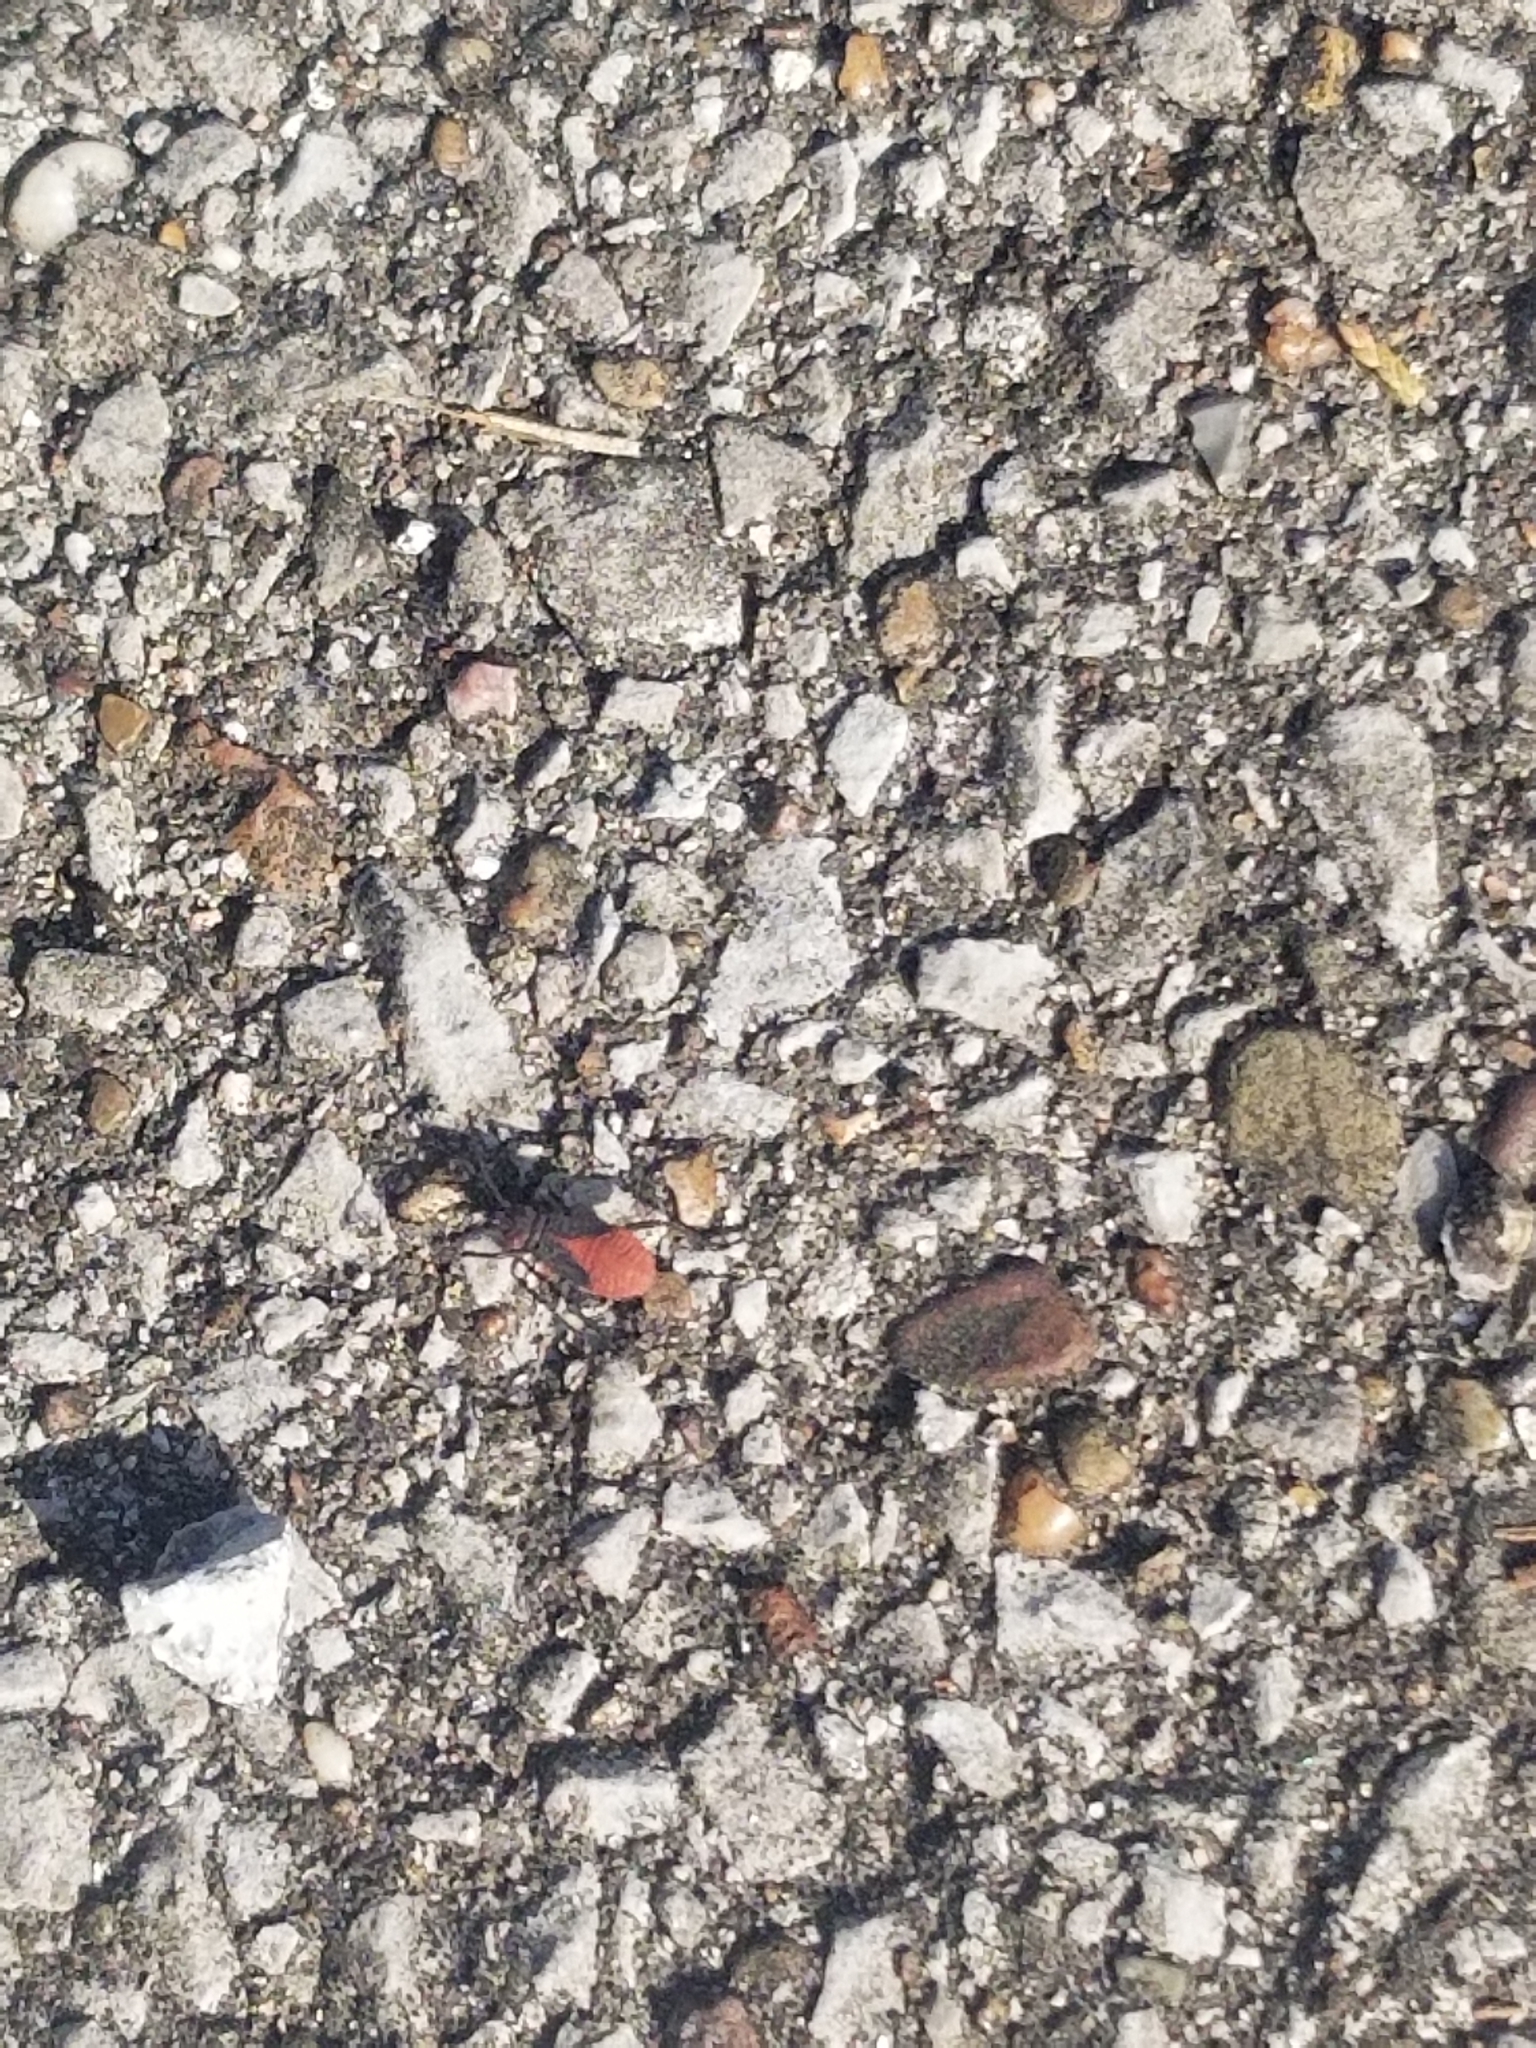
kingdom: Animalia
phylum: Arthropoda
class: Insecta
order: Hemiptera
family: Rhopalidae
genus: Jadera
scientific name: Jadera haematoloma
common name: Red-shouldered bug
